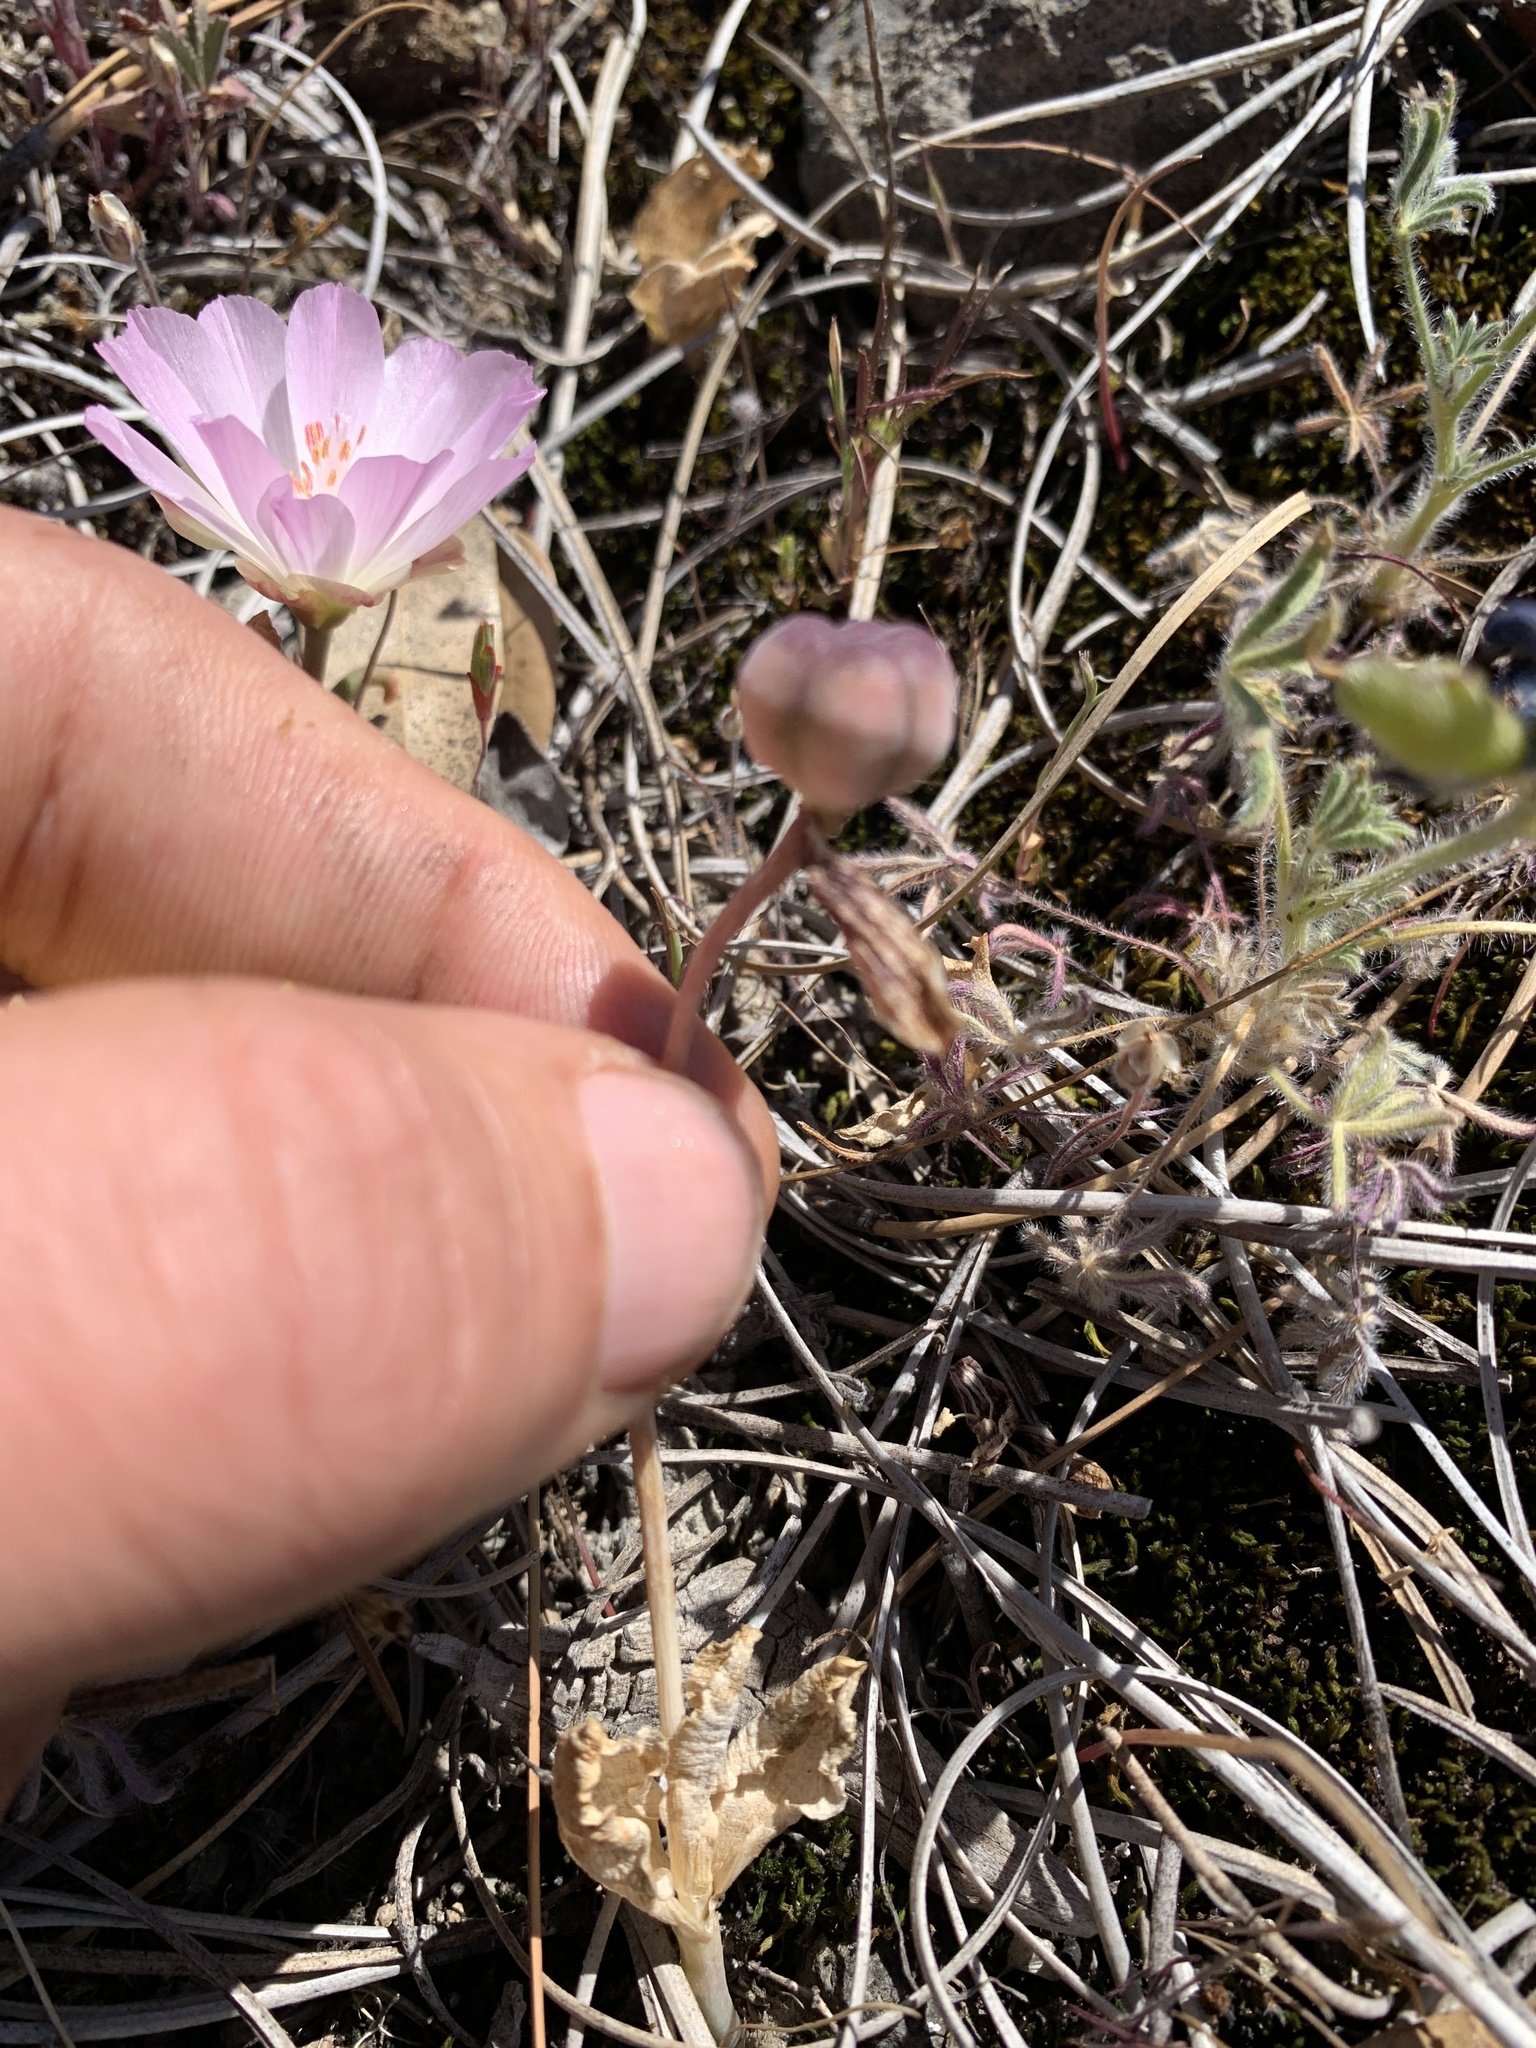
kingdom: Plantae
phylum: Tracheophyta
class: Liliopsida
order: Liliales
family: Liliaceae
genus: Fritillaria
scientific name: Fritillaria purdyi
